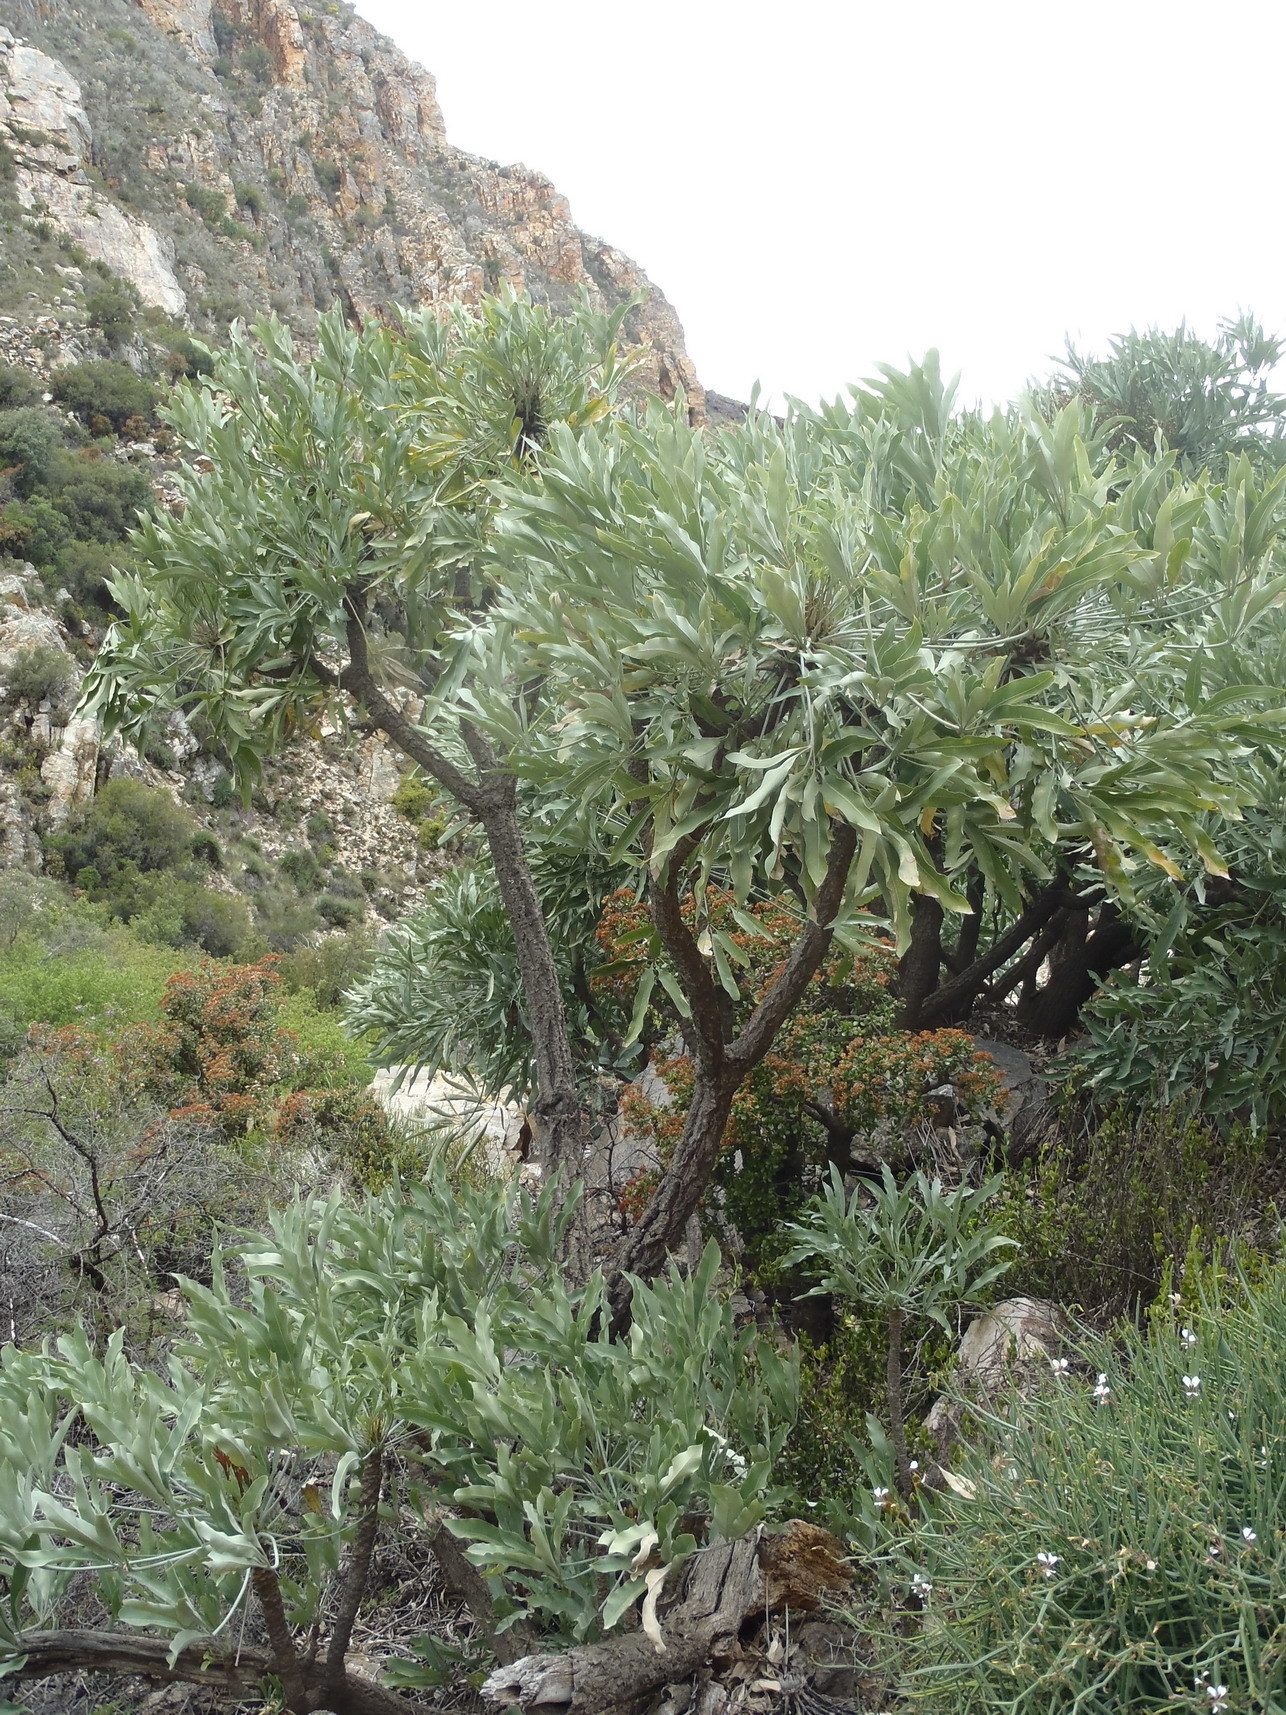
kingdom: Plantae
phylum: Tracheophyta
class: Magnoliopsida
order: Apiales
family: Araliaceae
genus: Cussonia
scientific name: Cussonia paniculata
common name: Cabbagetree
